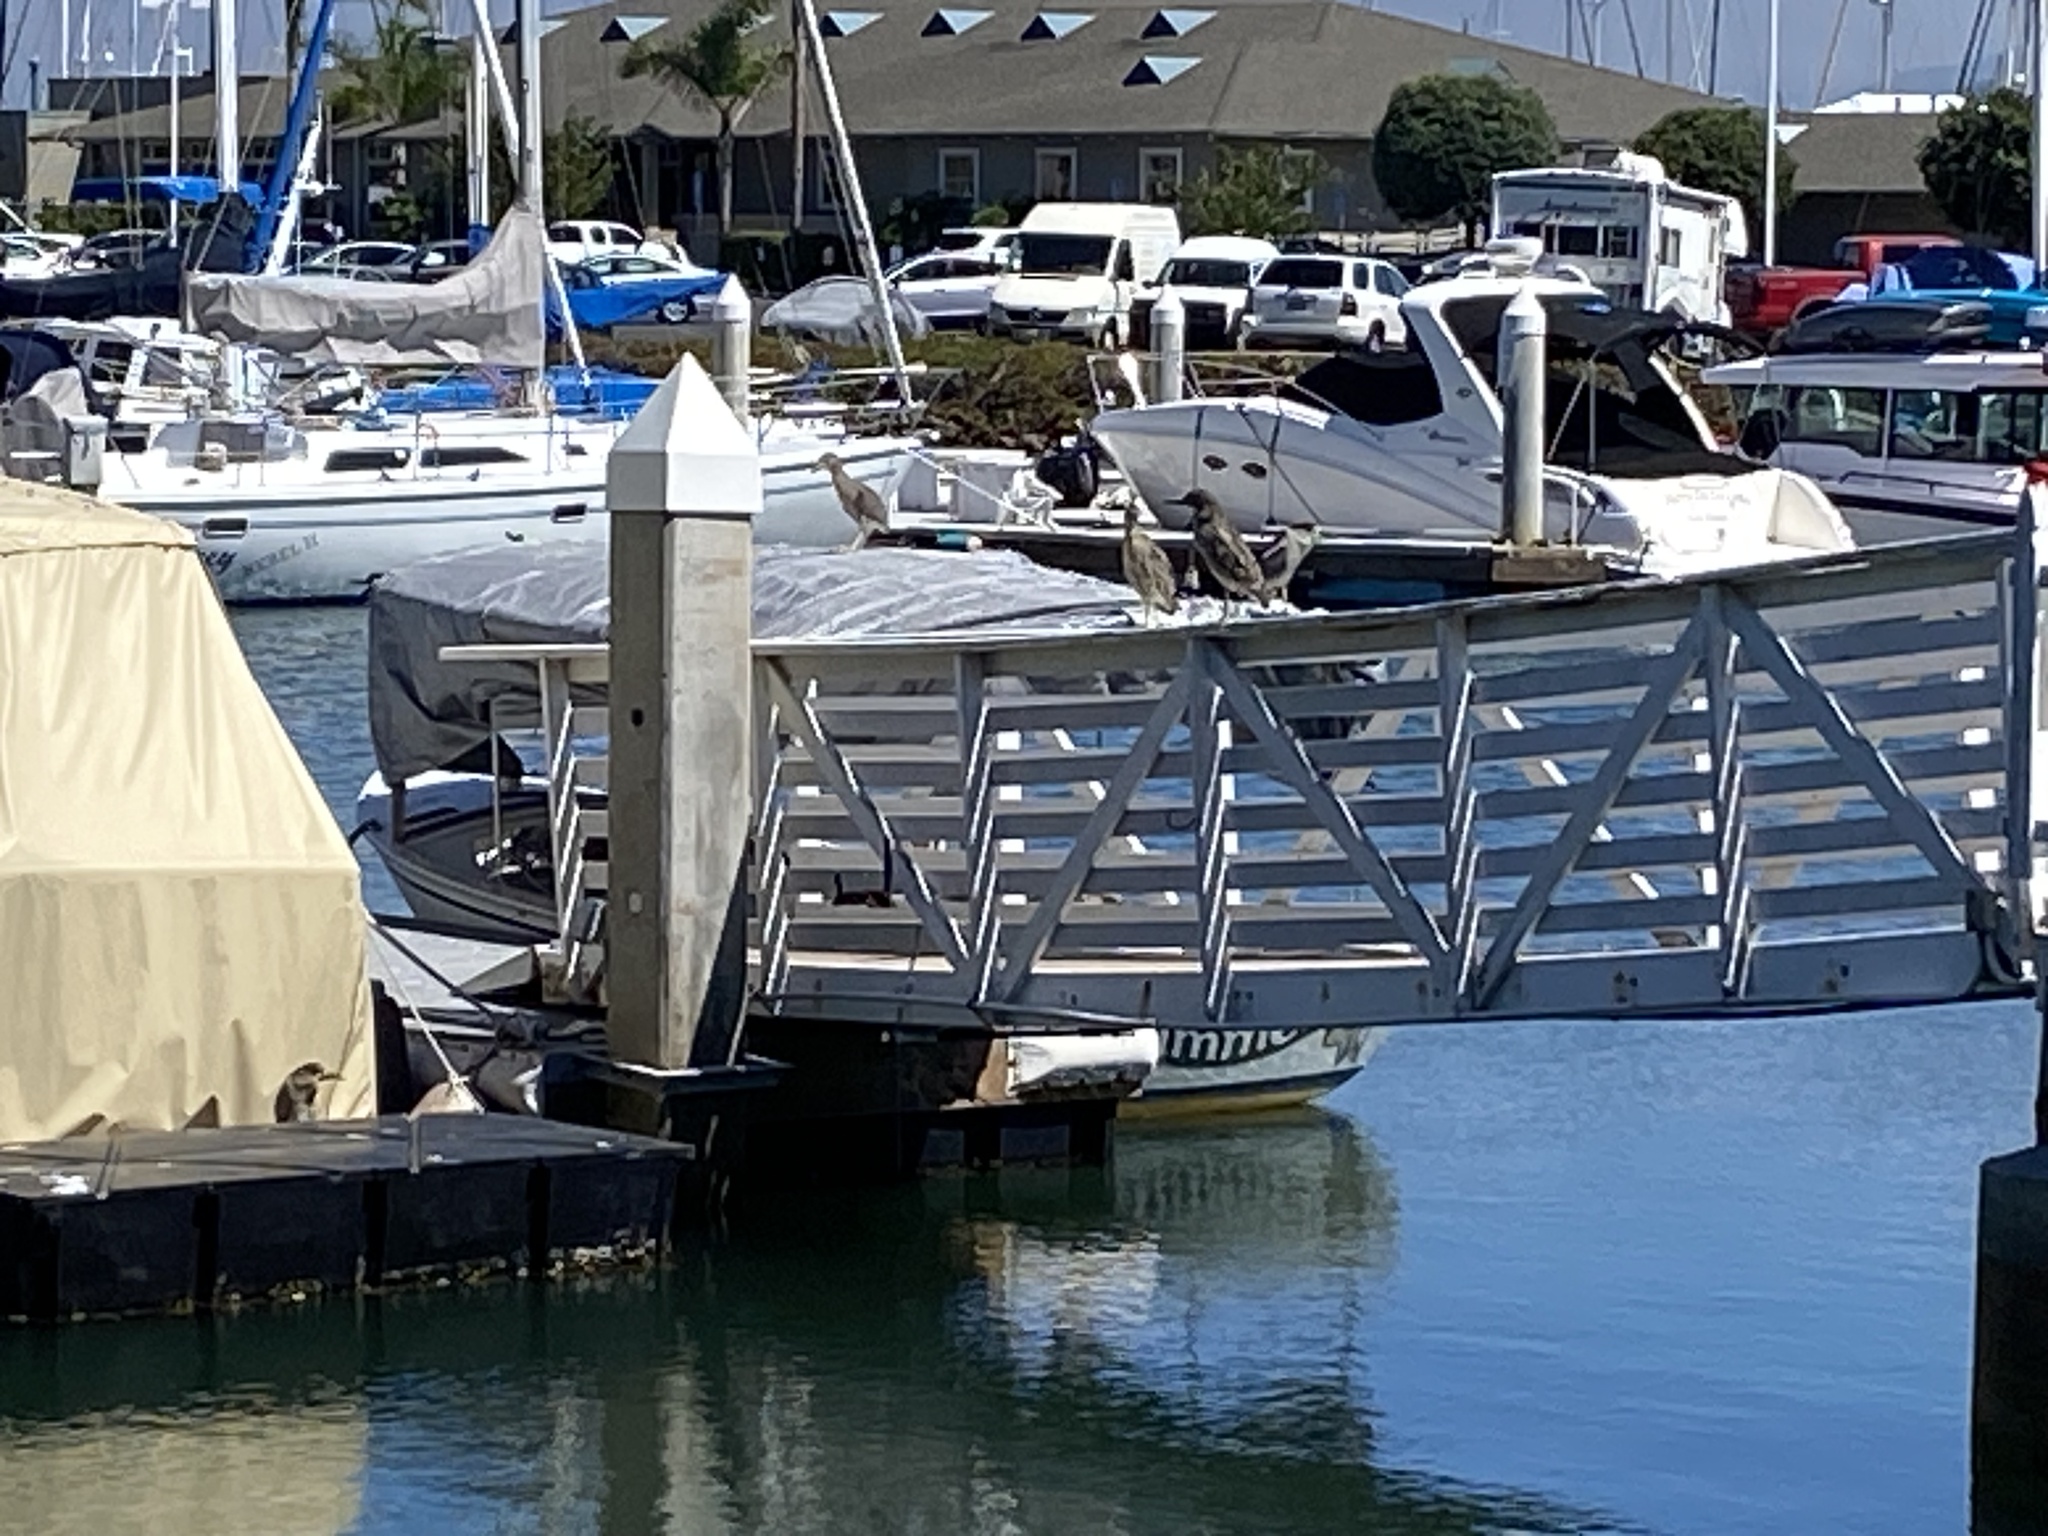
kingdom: Animalia
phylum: Chordata
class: Aves
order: Pelecaniformes
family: Ardeidae
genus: Nycticorax
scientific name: Nycticorax nycticorax
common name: Black-crowned night heron
